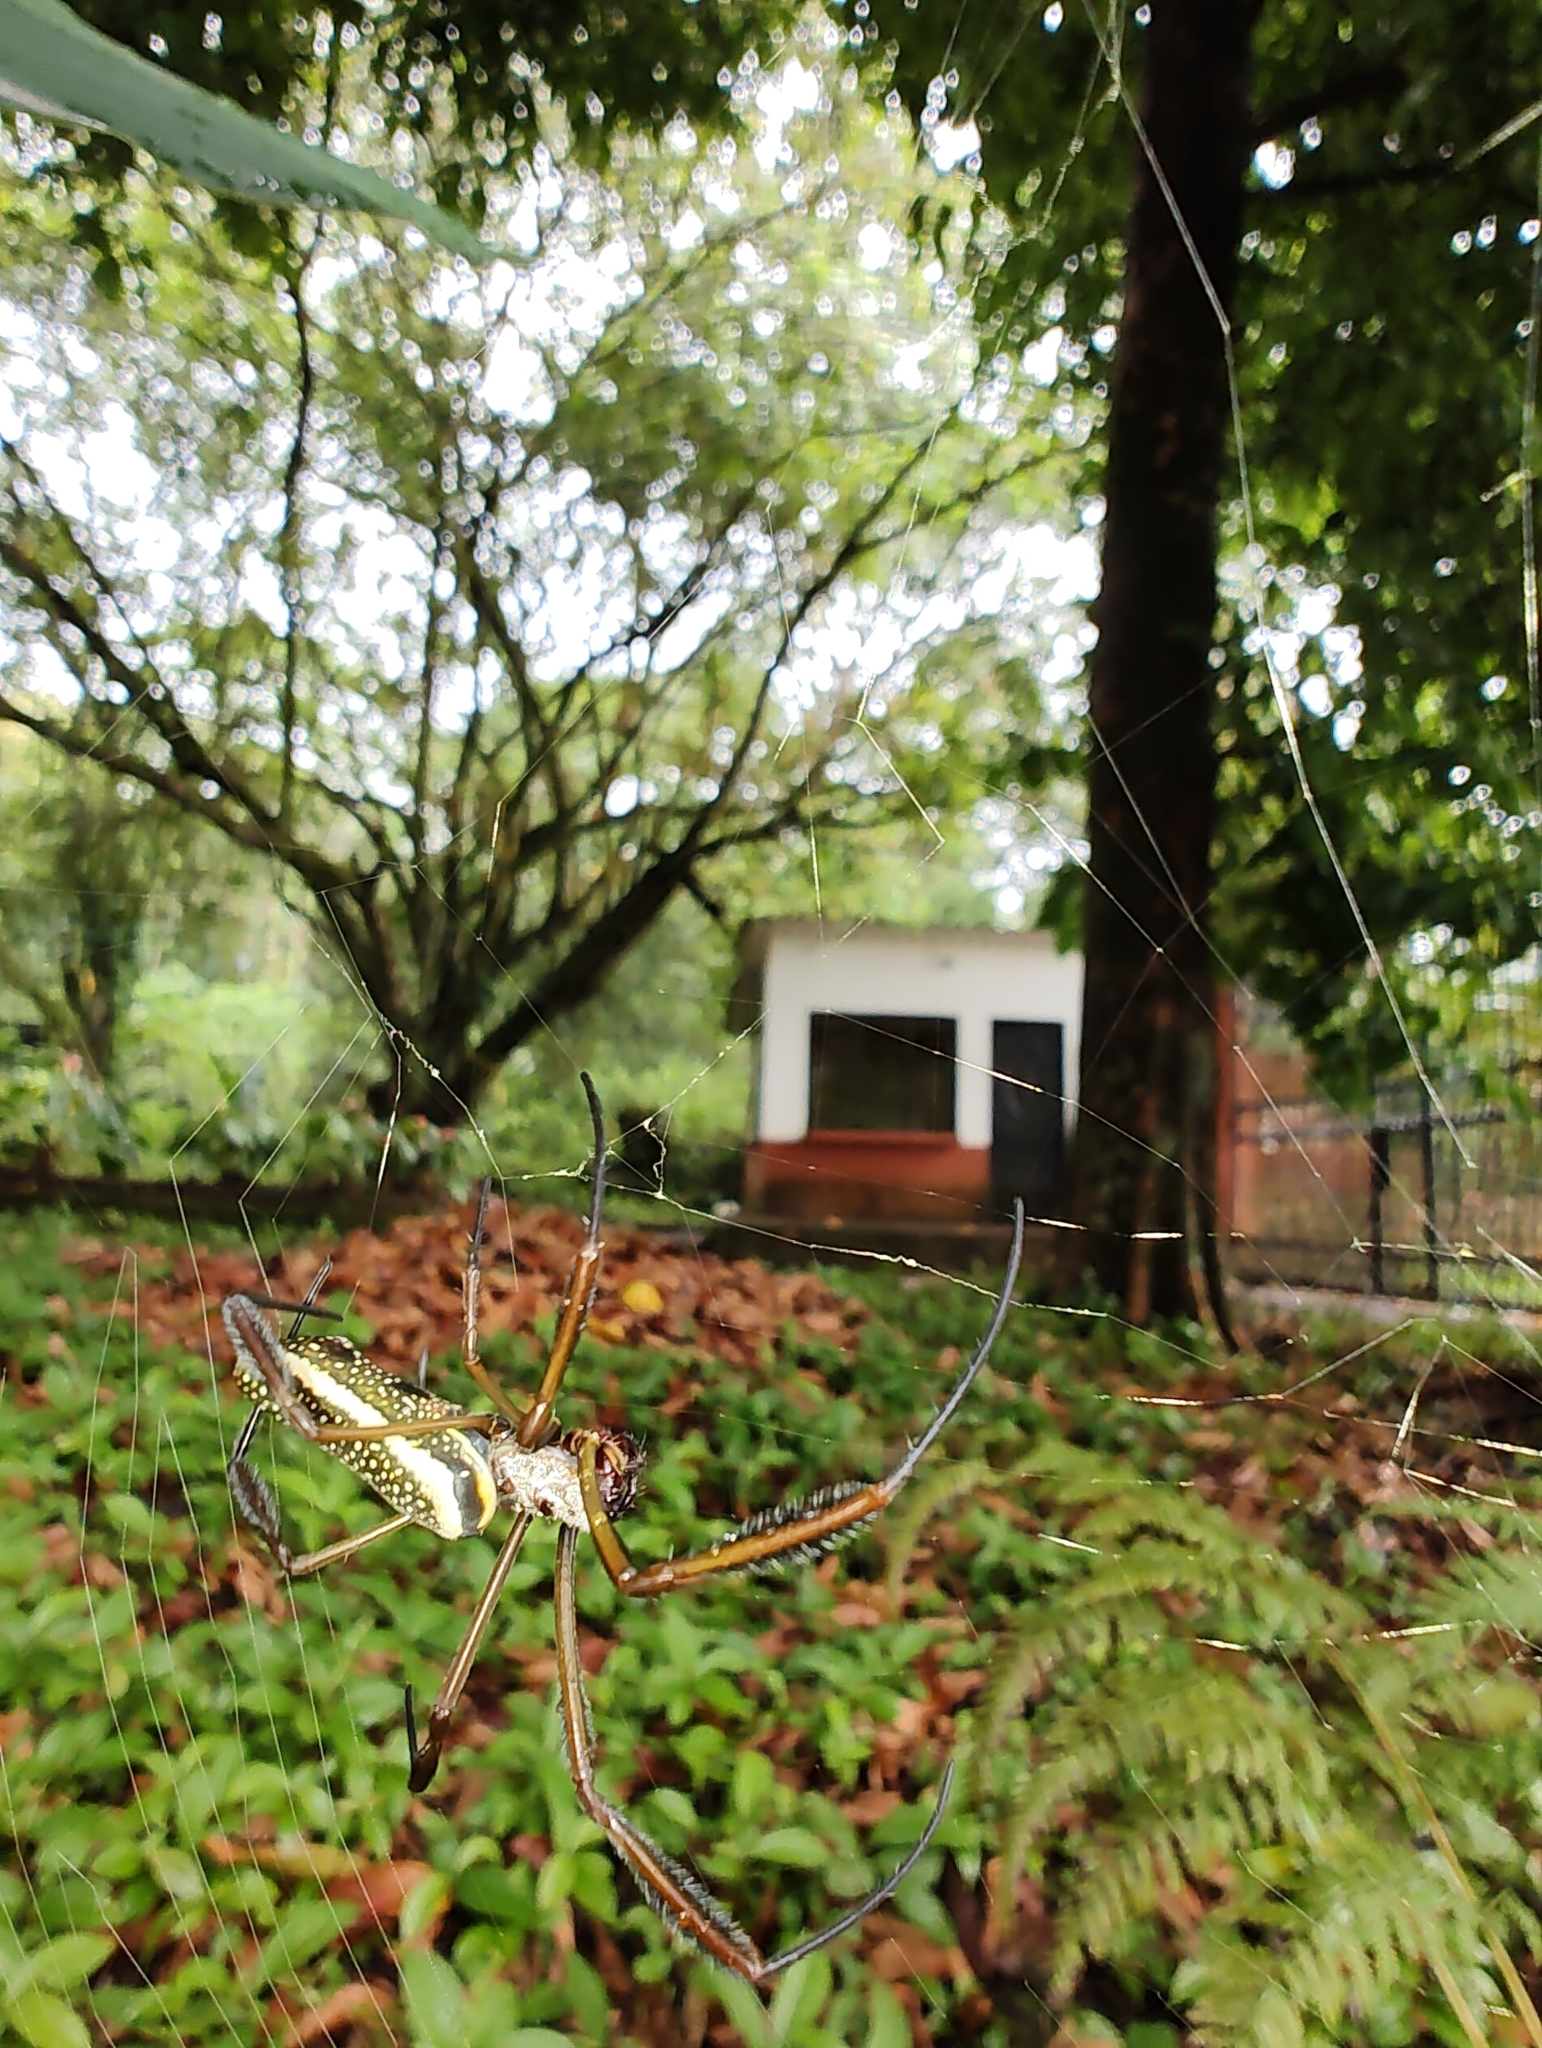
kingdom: Animalia
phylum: Arthropoda
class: Arachnida
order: Araneae
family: Araneidae
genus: Trichonephila
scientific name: Trichonephila clavipes
